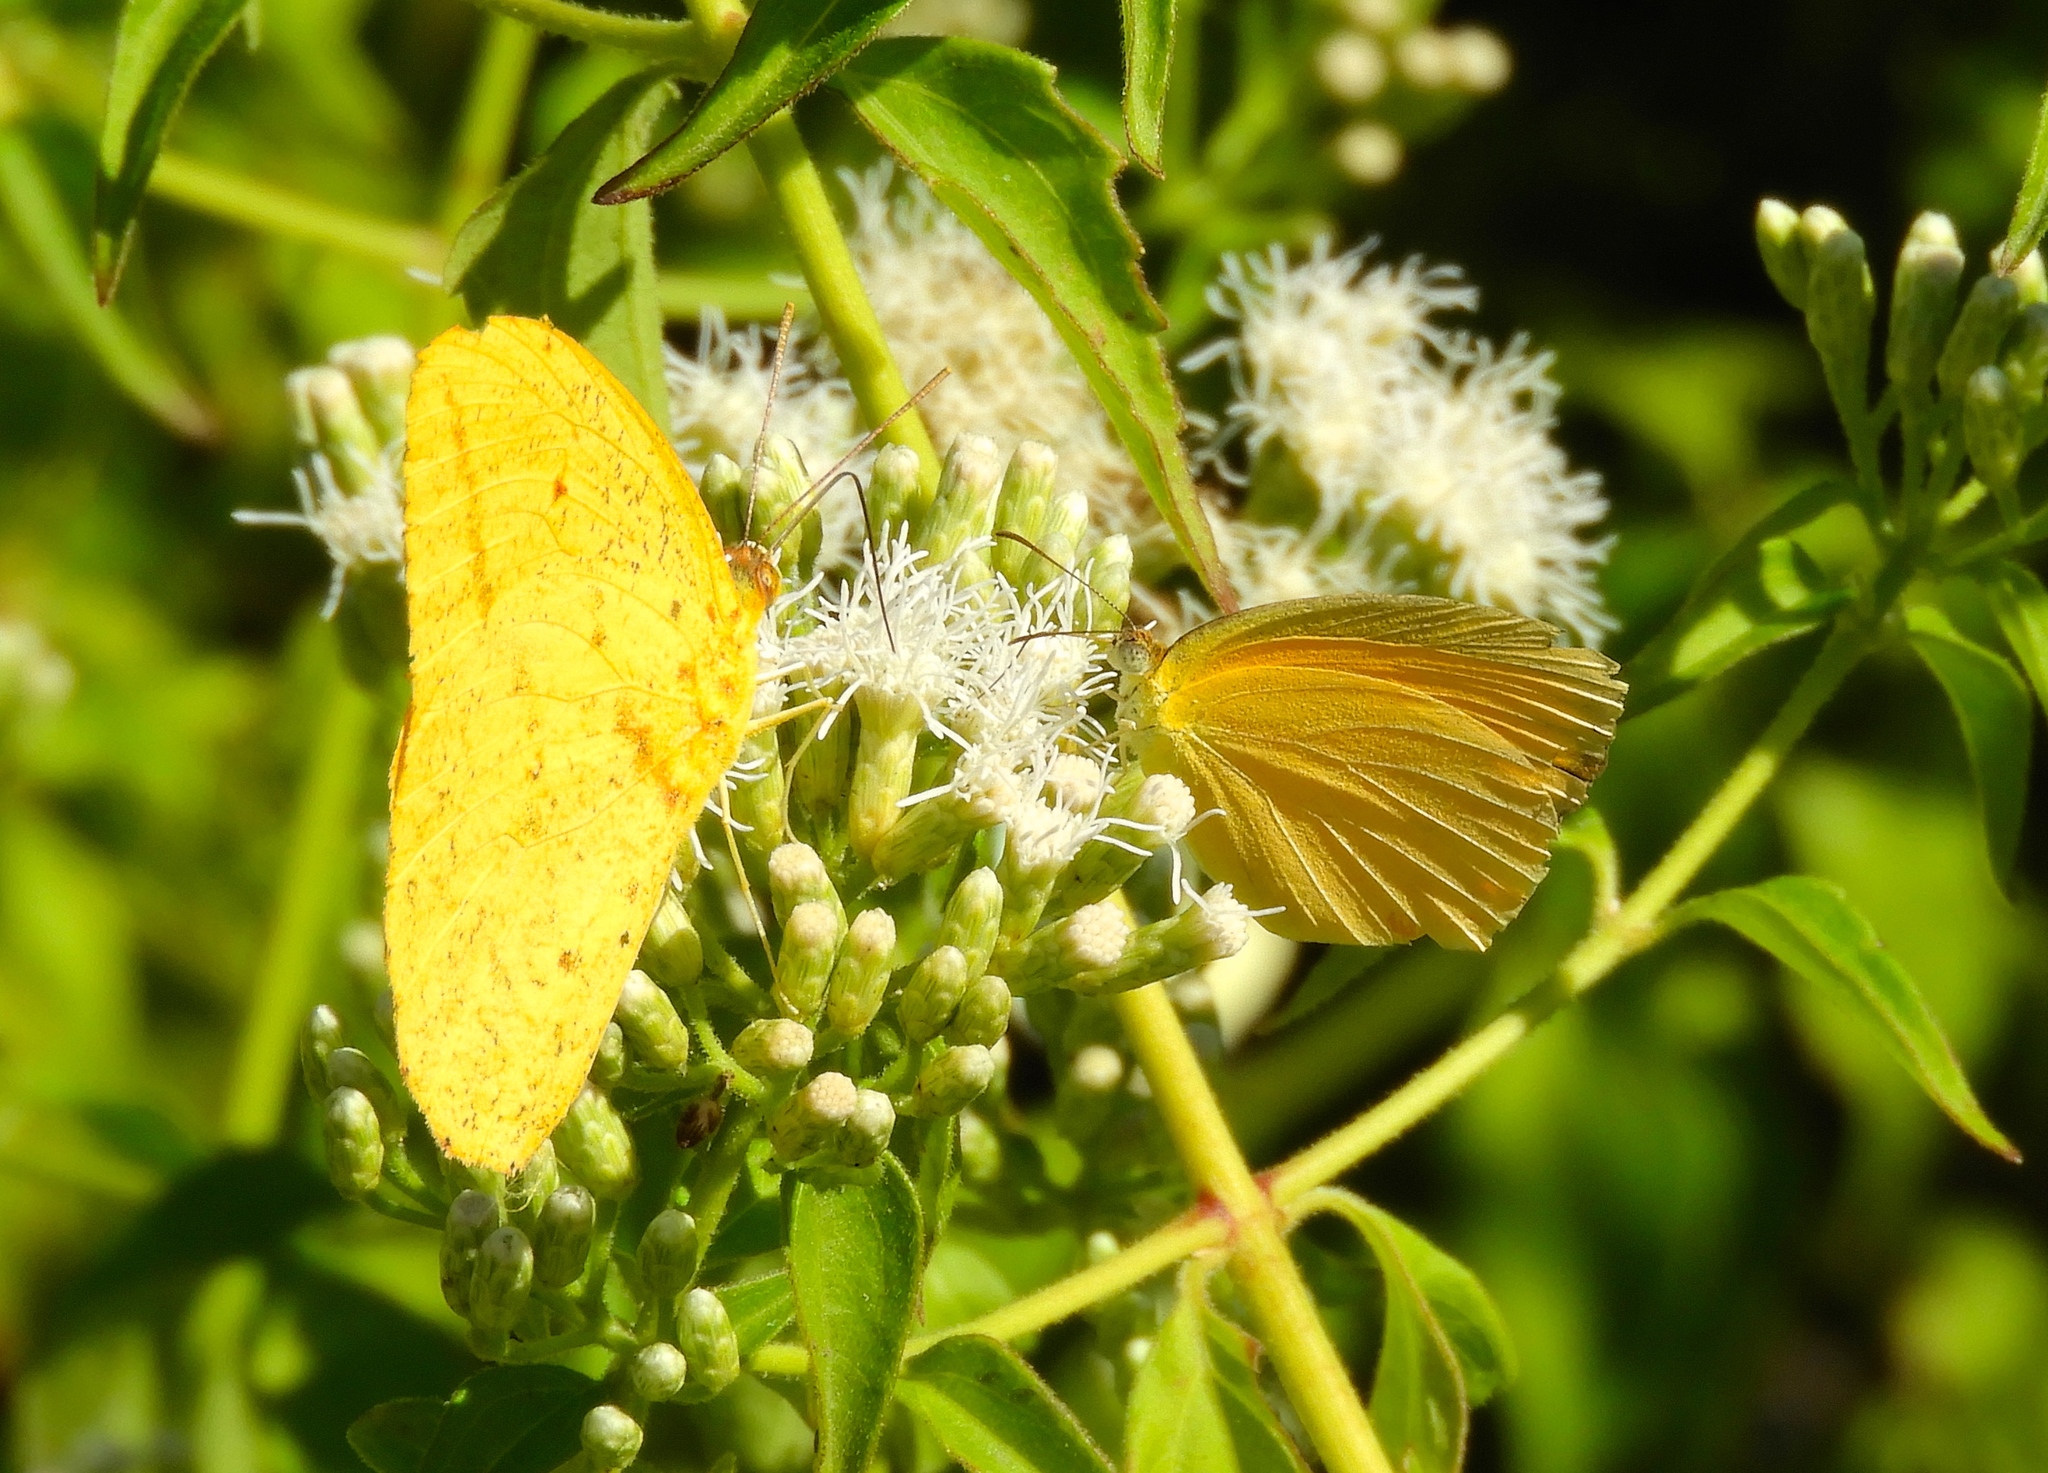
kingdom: Animalia
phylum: Arthropoda
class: Insecta
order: Lepidoptera
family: Pieridae
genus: Phoebis
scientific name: Phoebis agarithe
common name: Large orange sulphur
